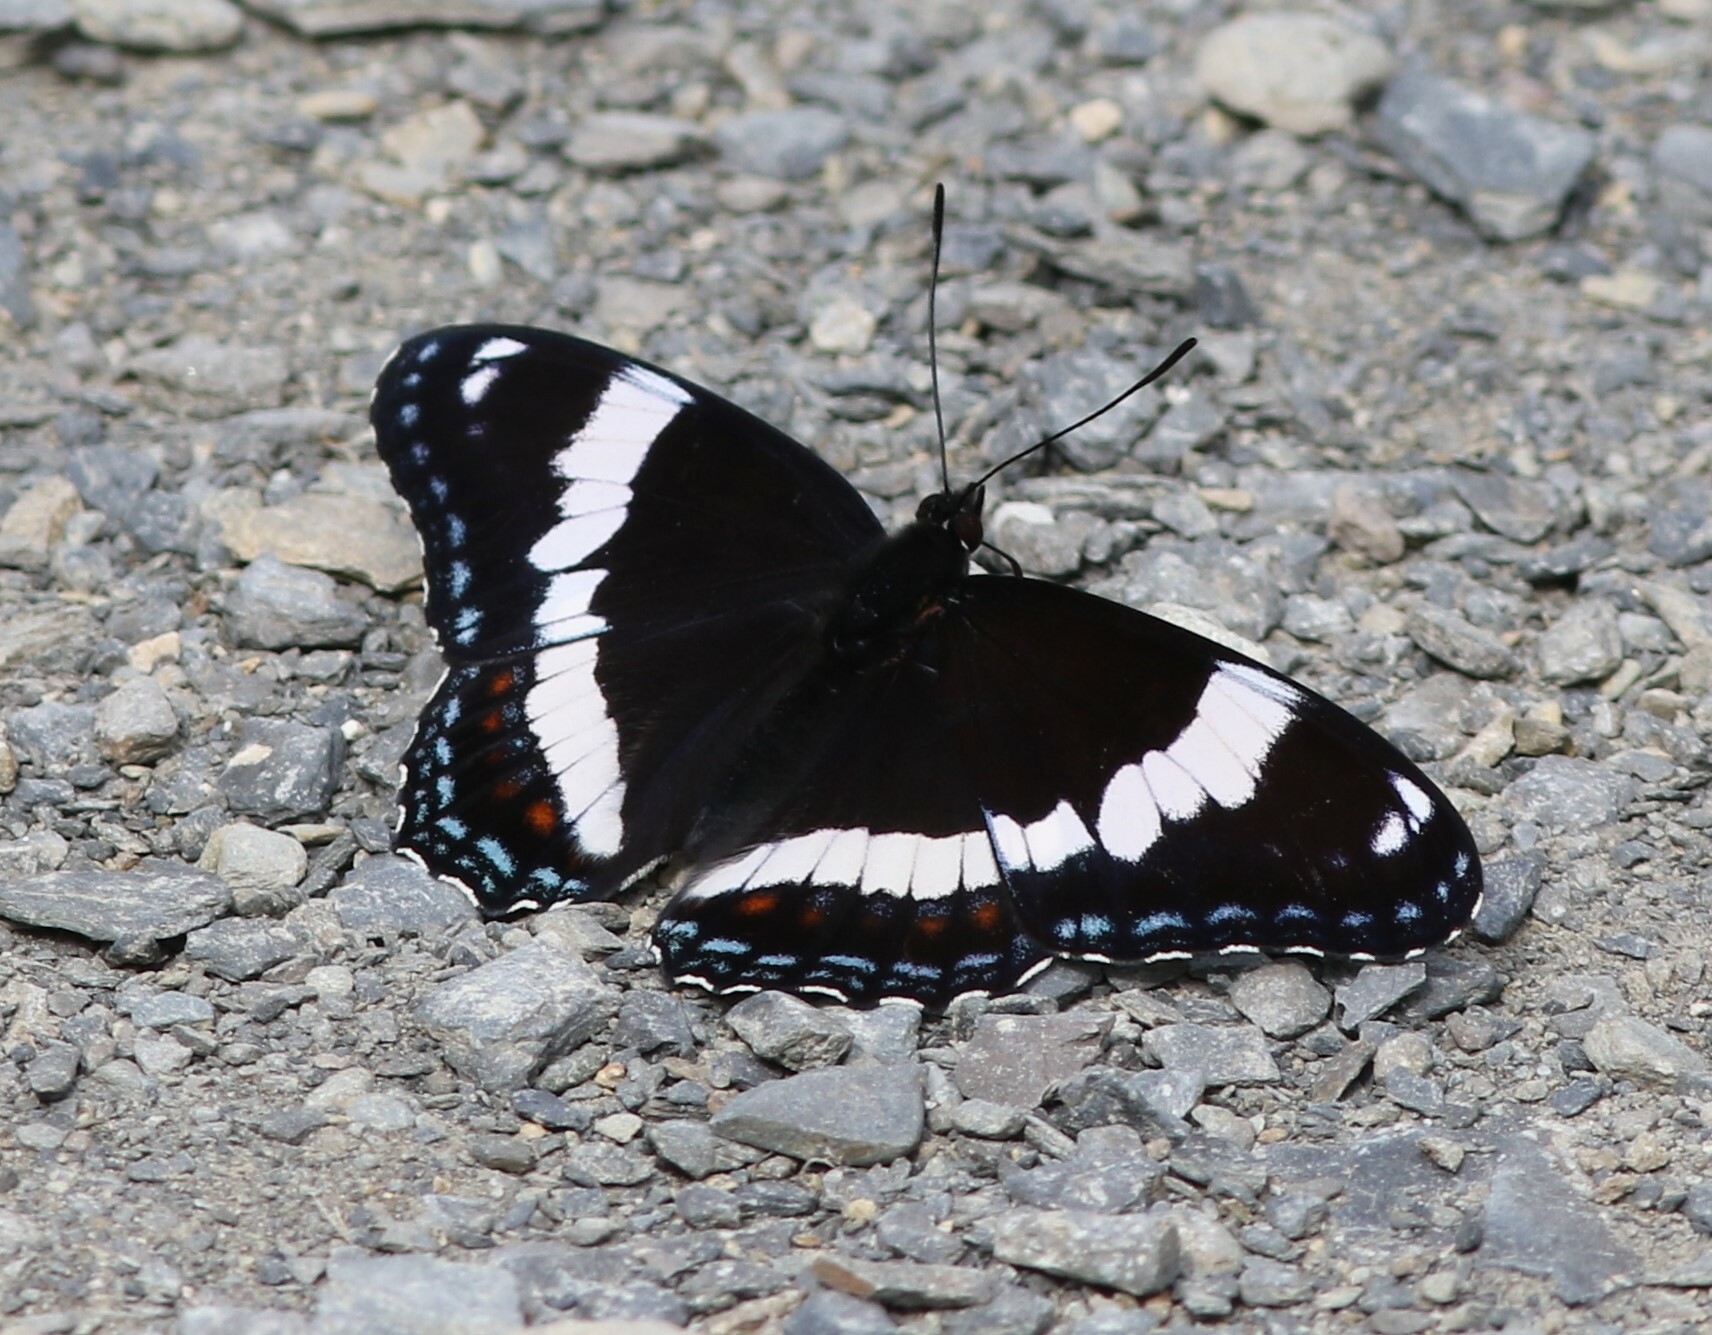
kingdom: Animalia
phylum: Arthropoda
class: Insecta
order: Lepidoptera
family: Nymphalidae
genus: Limenitis
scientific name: Limenitis arthemis
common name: Red-spotted admiral
